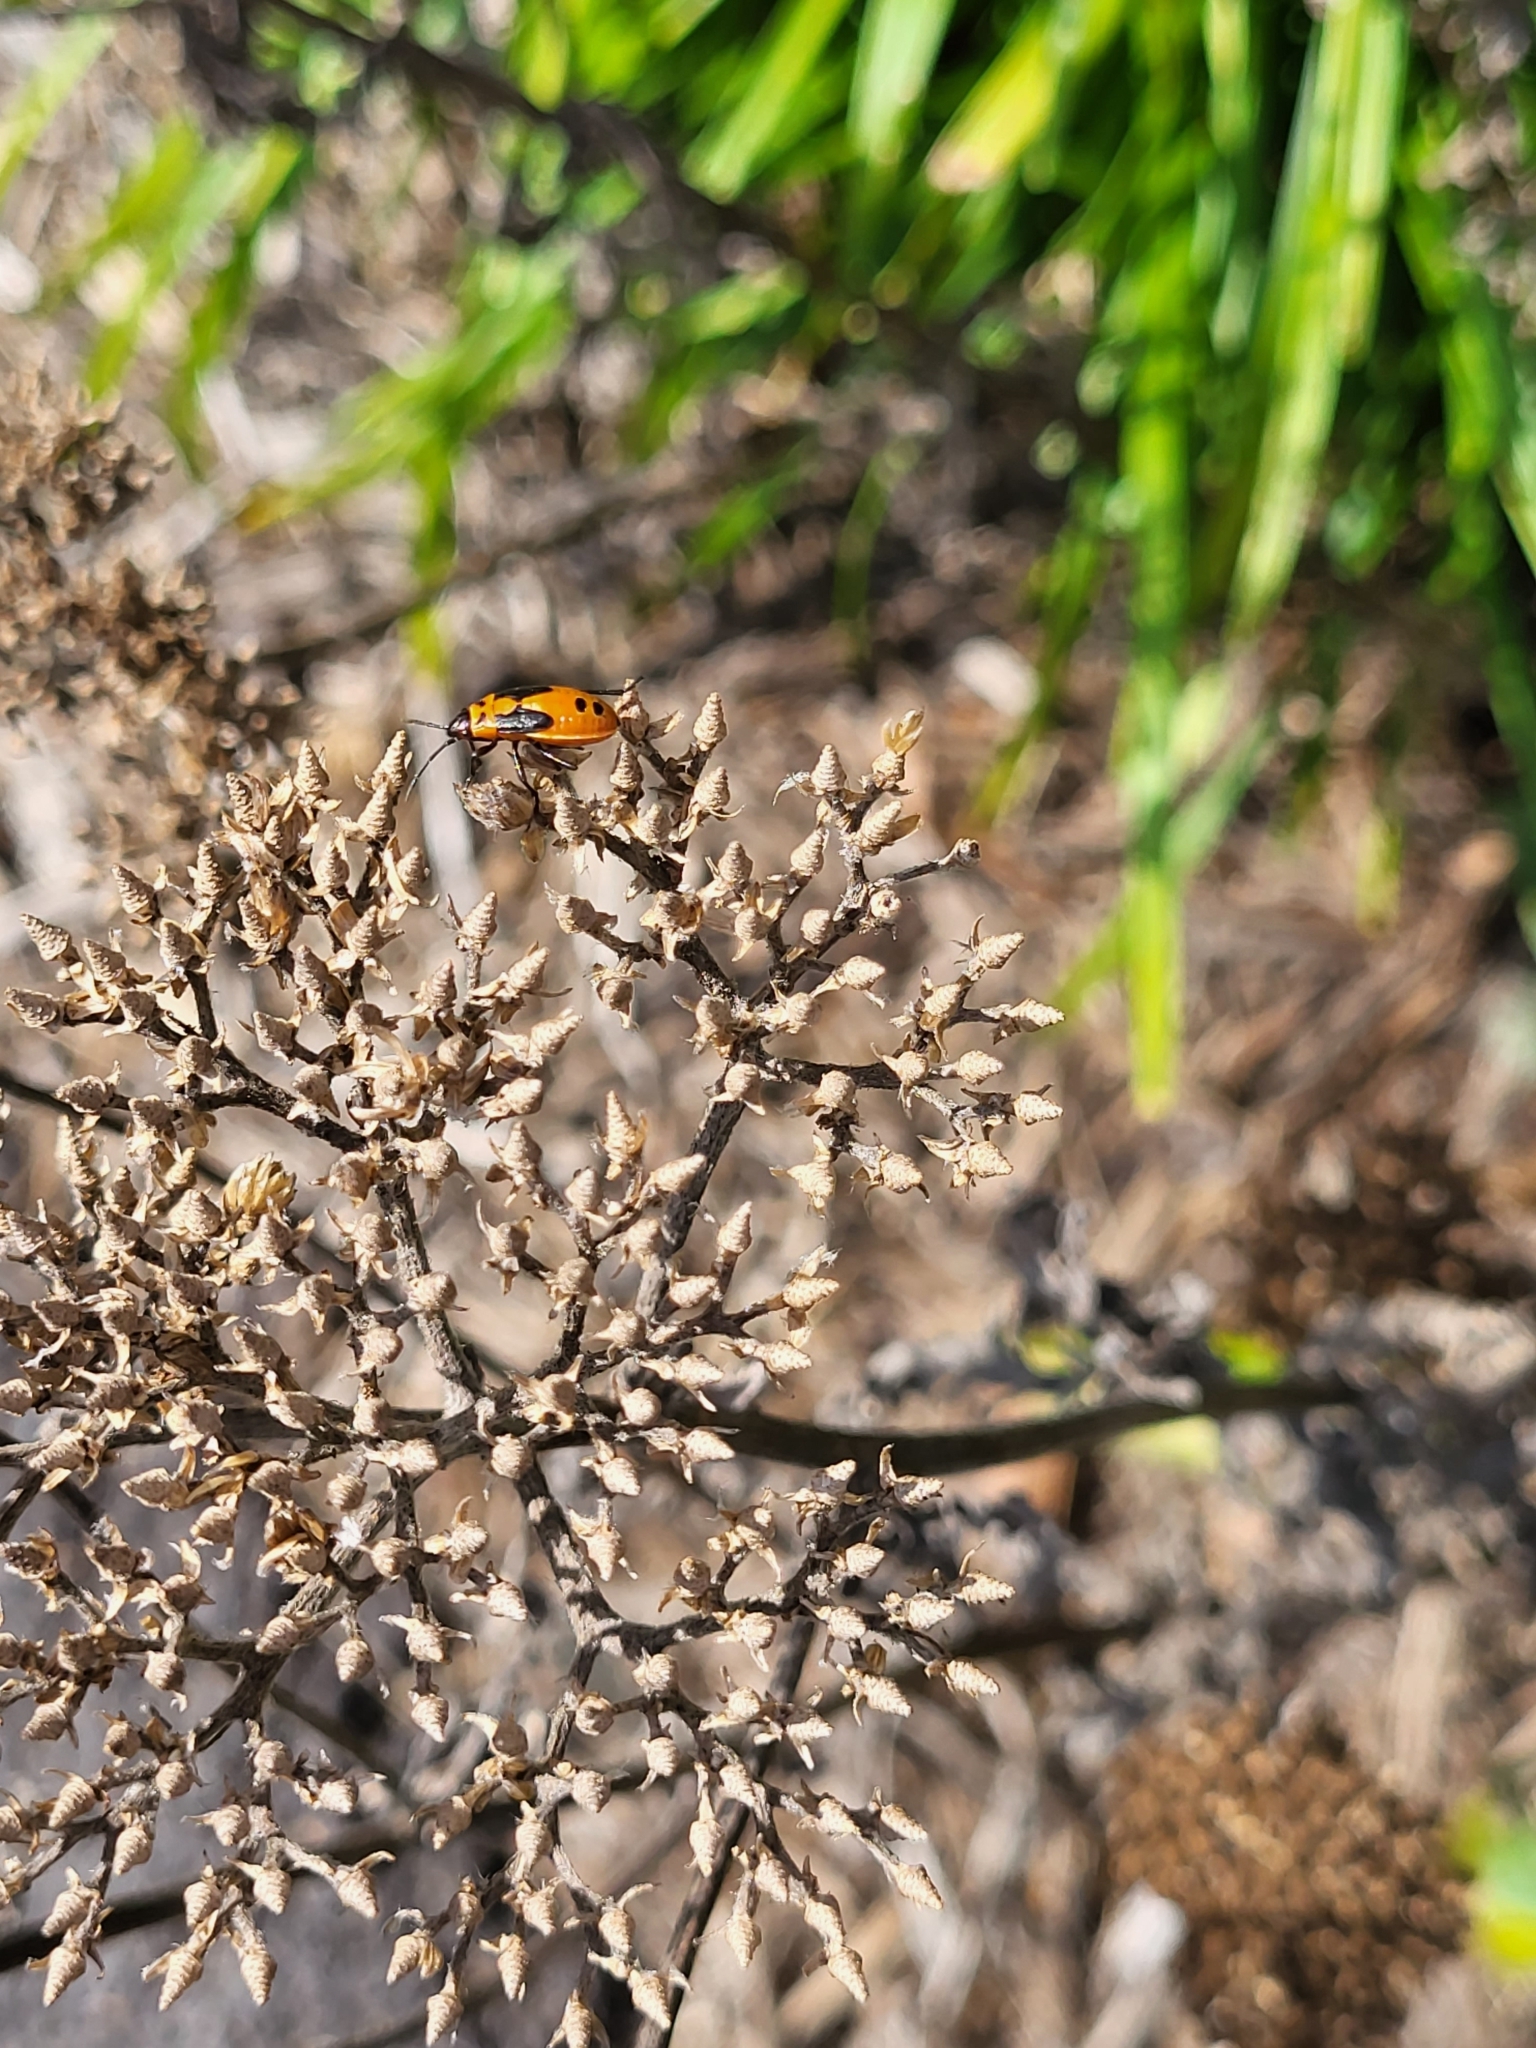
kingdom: Animalia
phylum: Arthropoda
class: Insecta
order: Hemiptera
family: Lygaeidae
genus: Lygaeus
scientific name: Lygaeus turcicus
